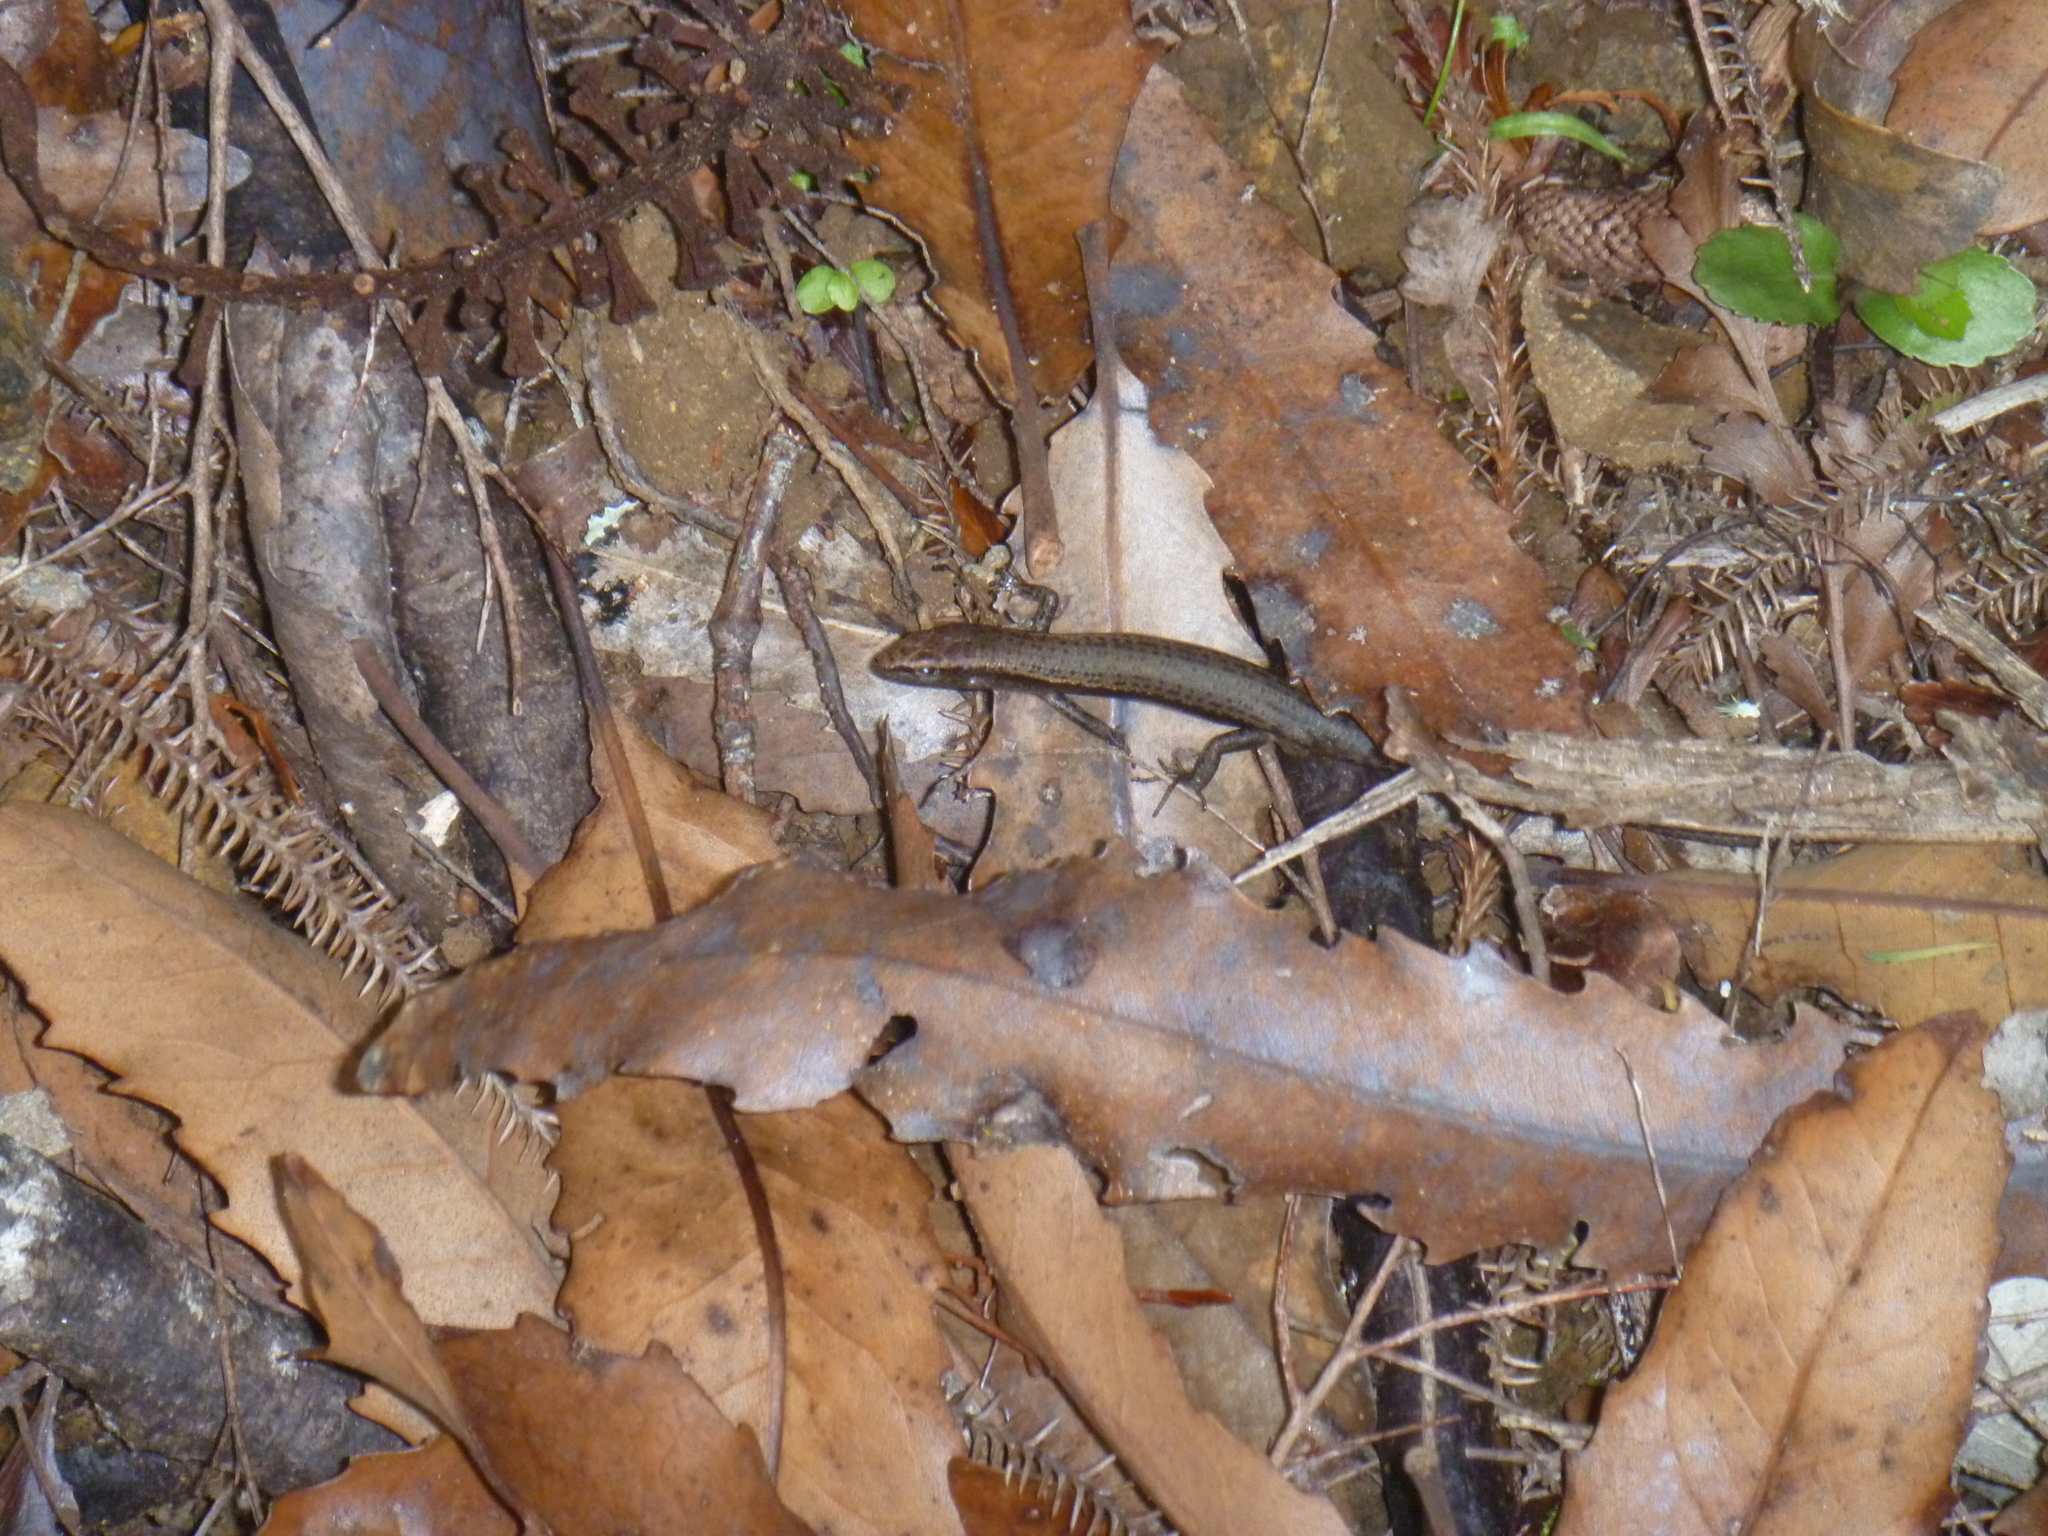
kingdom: Animalia
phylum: Chordata
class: Squamata
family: Scincidae
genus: Lampropholis
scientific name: Lampropholis delicata
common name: Plague skink
